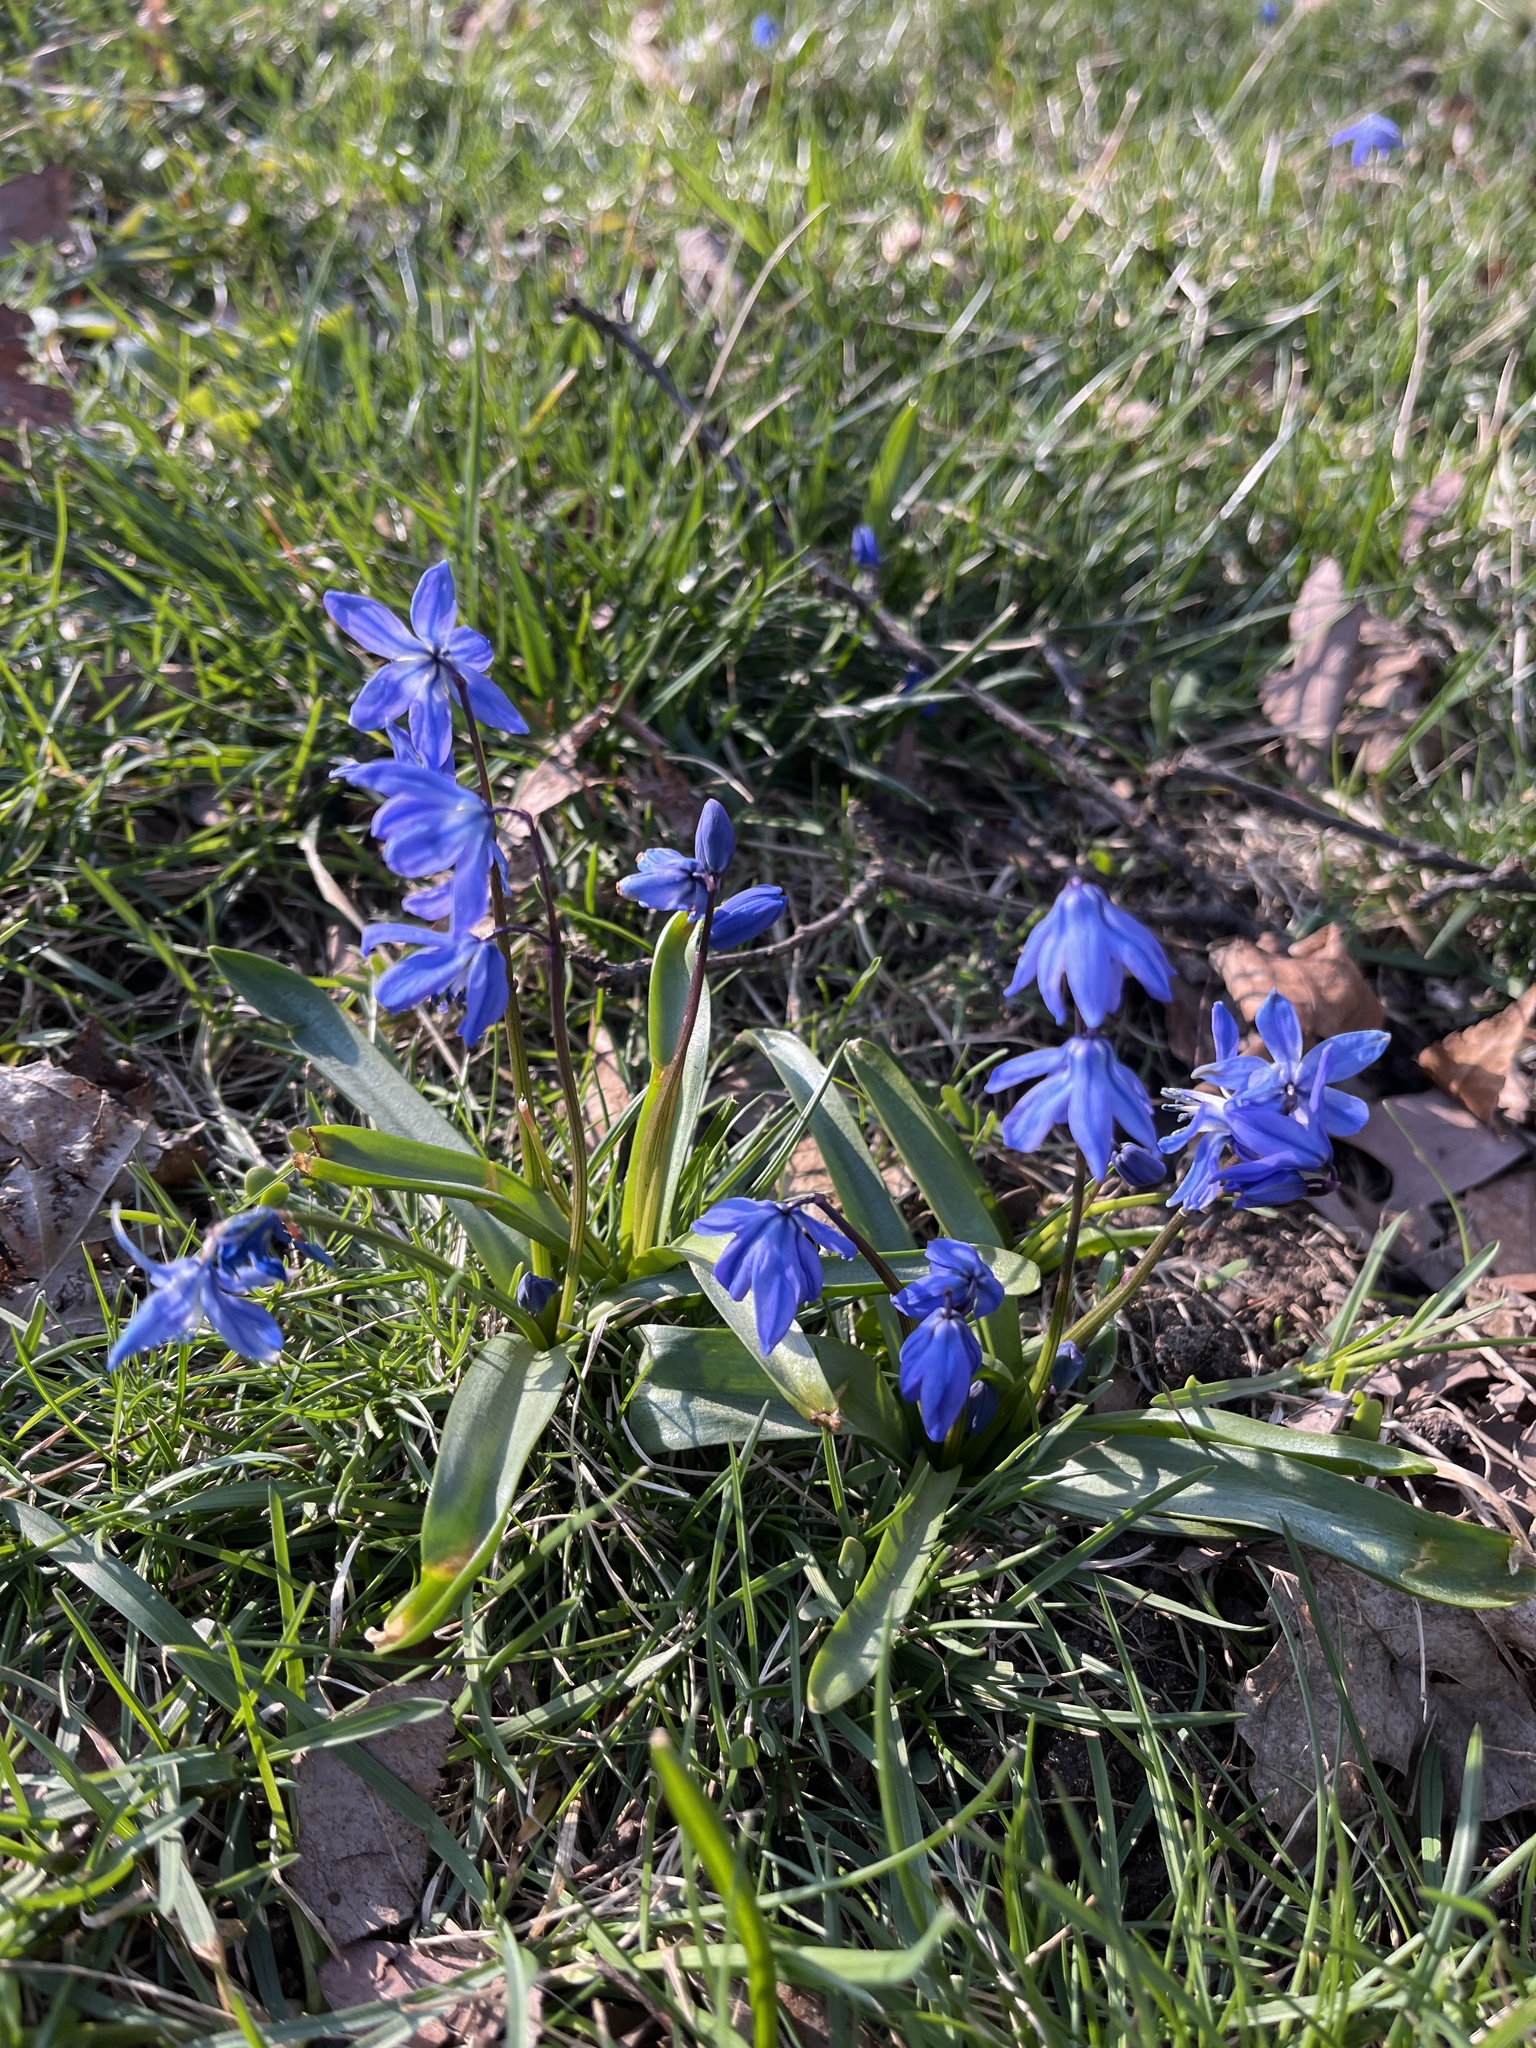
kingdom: Plantae
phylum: Tracheophyta
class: Liliopsida
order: Asparagales
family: Asparagaceae
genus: Scilla
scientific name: Scilla siberica
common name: Siberian squill
